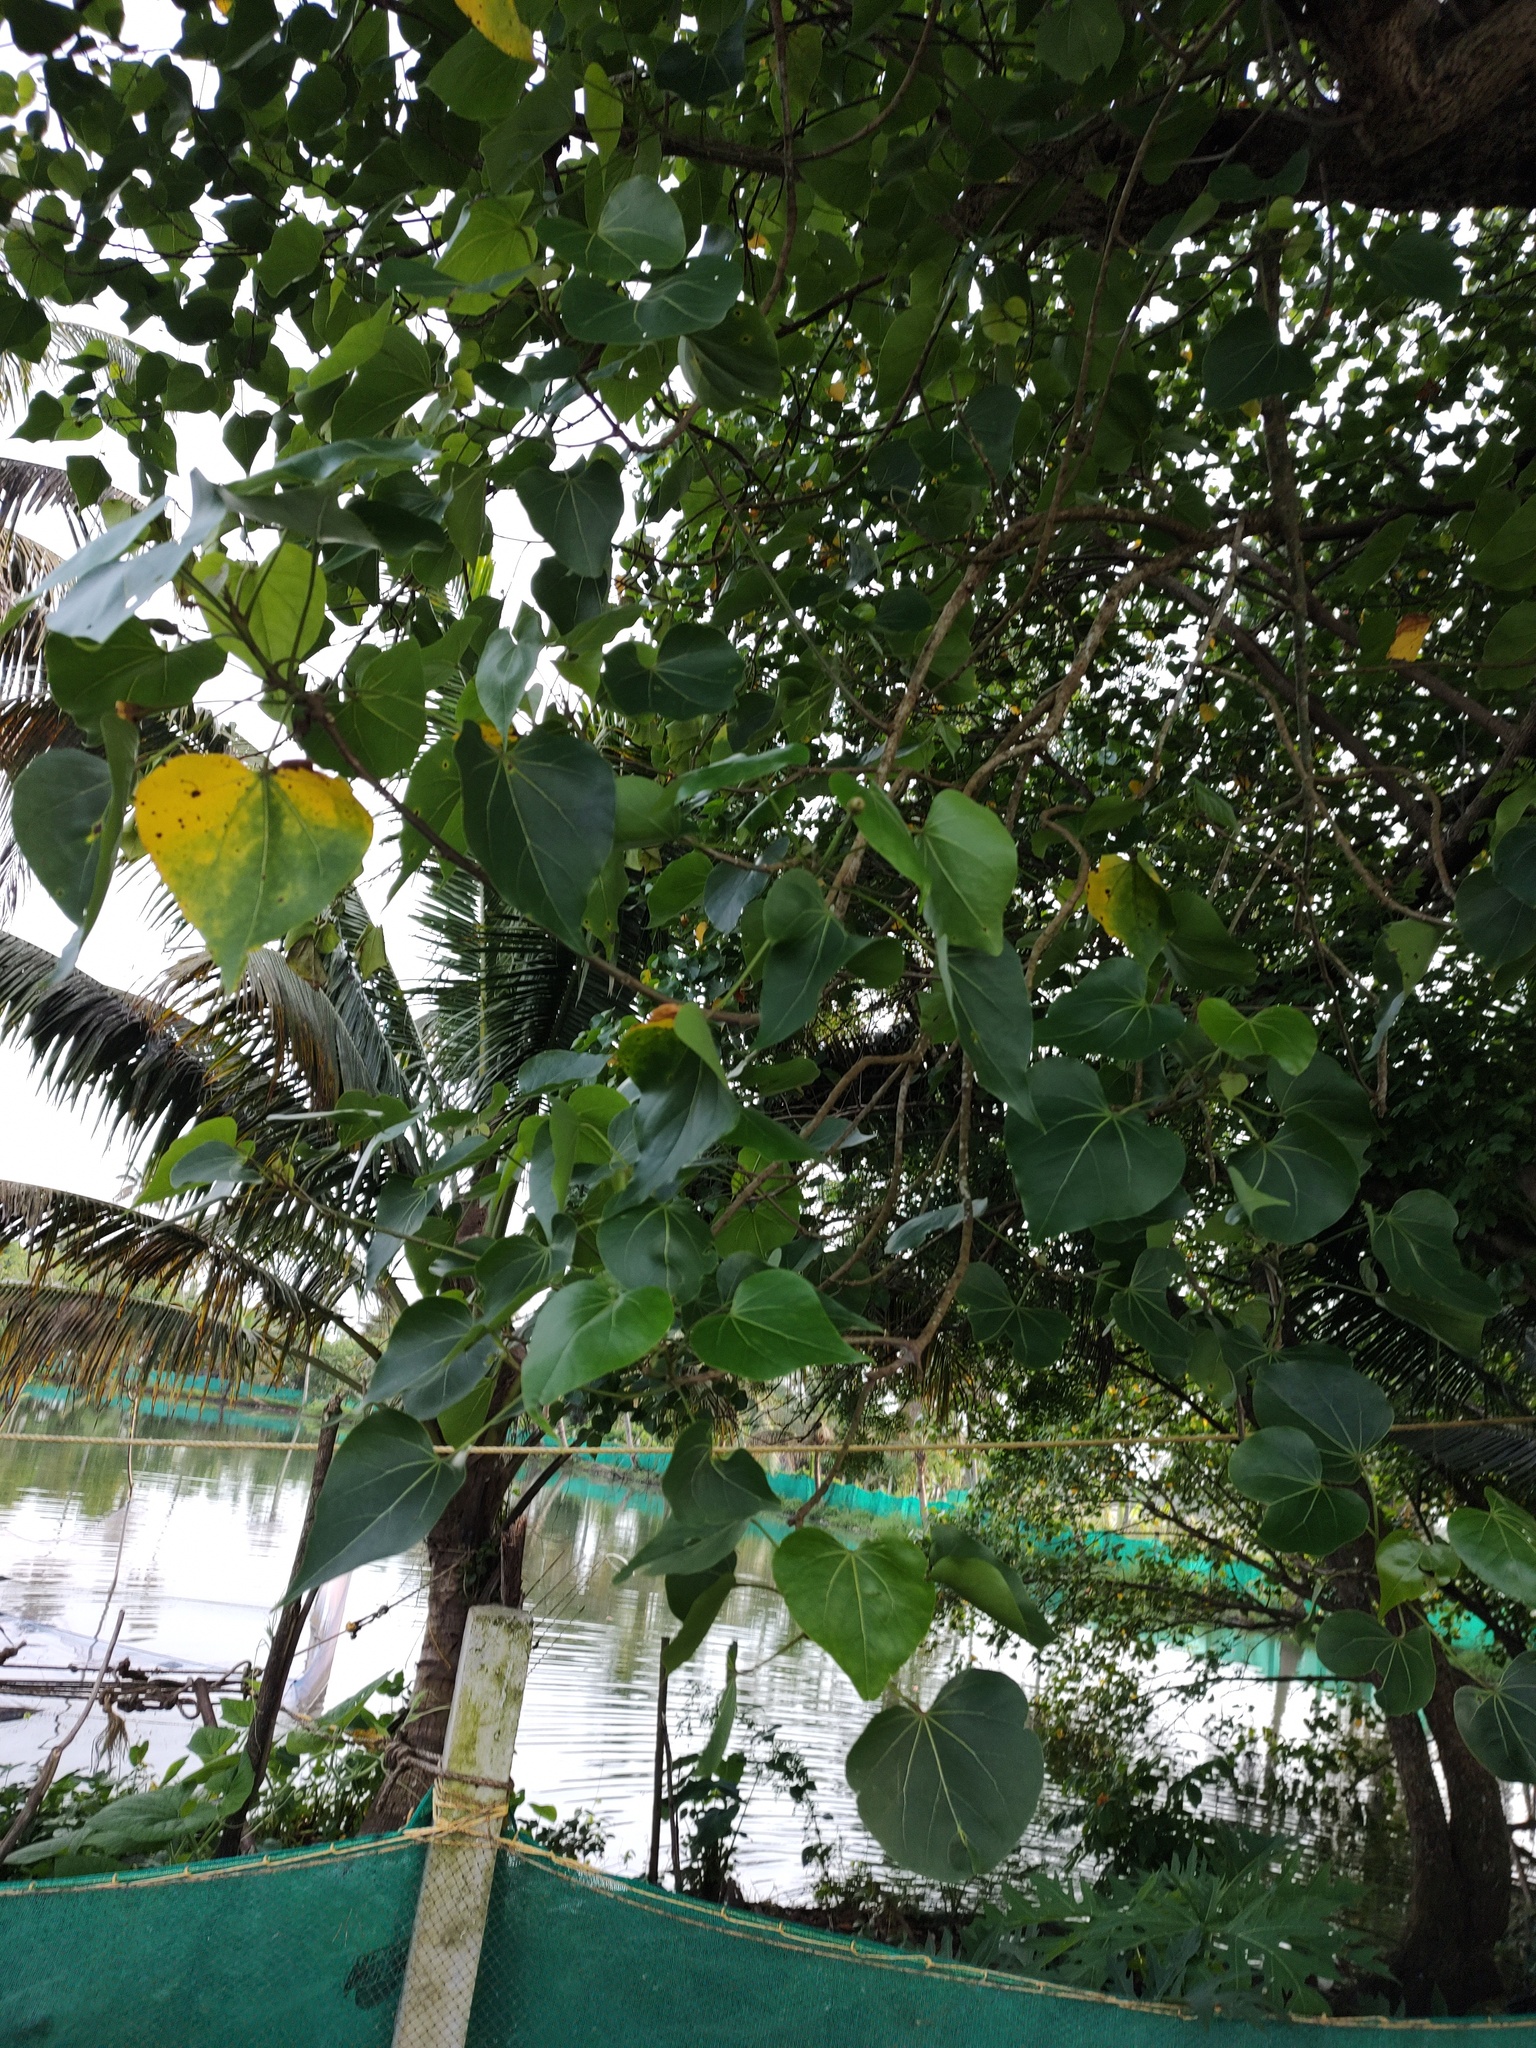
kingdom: Plantae
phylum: Tracheophyta
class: Magnoliopsida
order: Malvales
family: Malvaceae
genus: Thespesia
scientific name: Thespesia populnea
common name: Seaside mahoe
